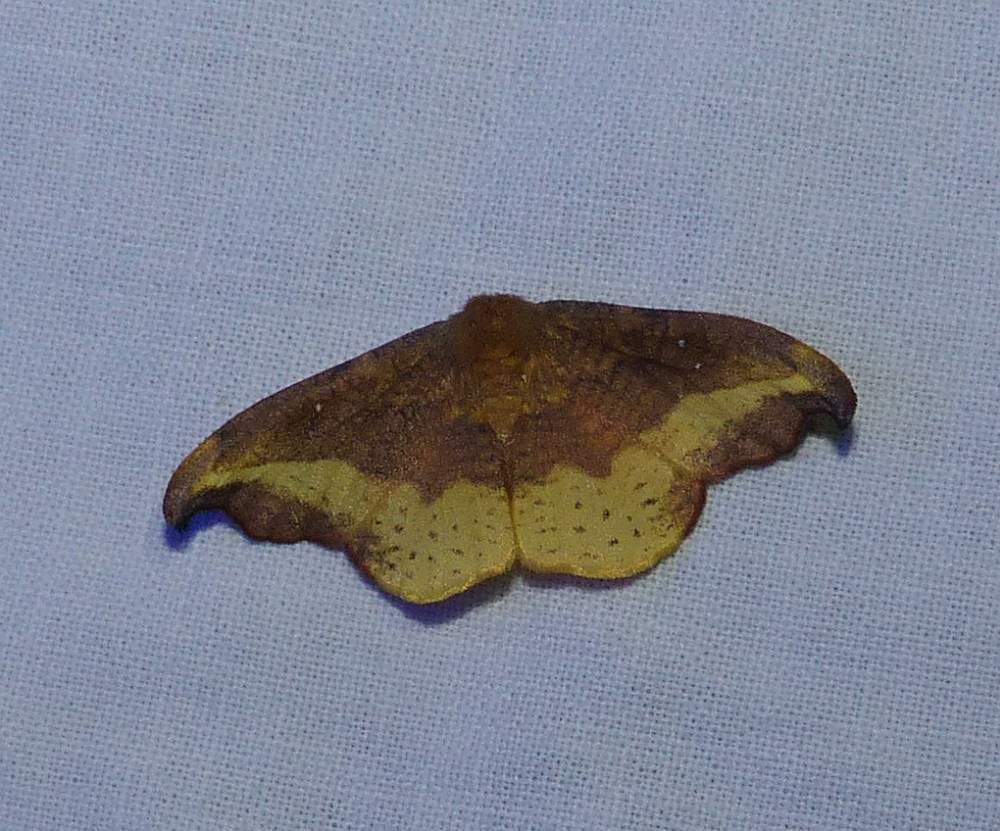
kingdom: Animalia
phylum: Arthropoda
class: Insecta
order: Lepidoptera
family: Drepanidae
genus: Oreta
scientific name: Oreta rosea
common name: Rose hooktip
